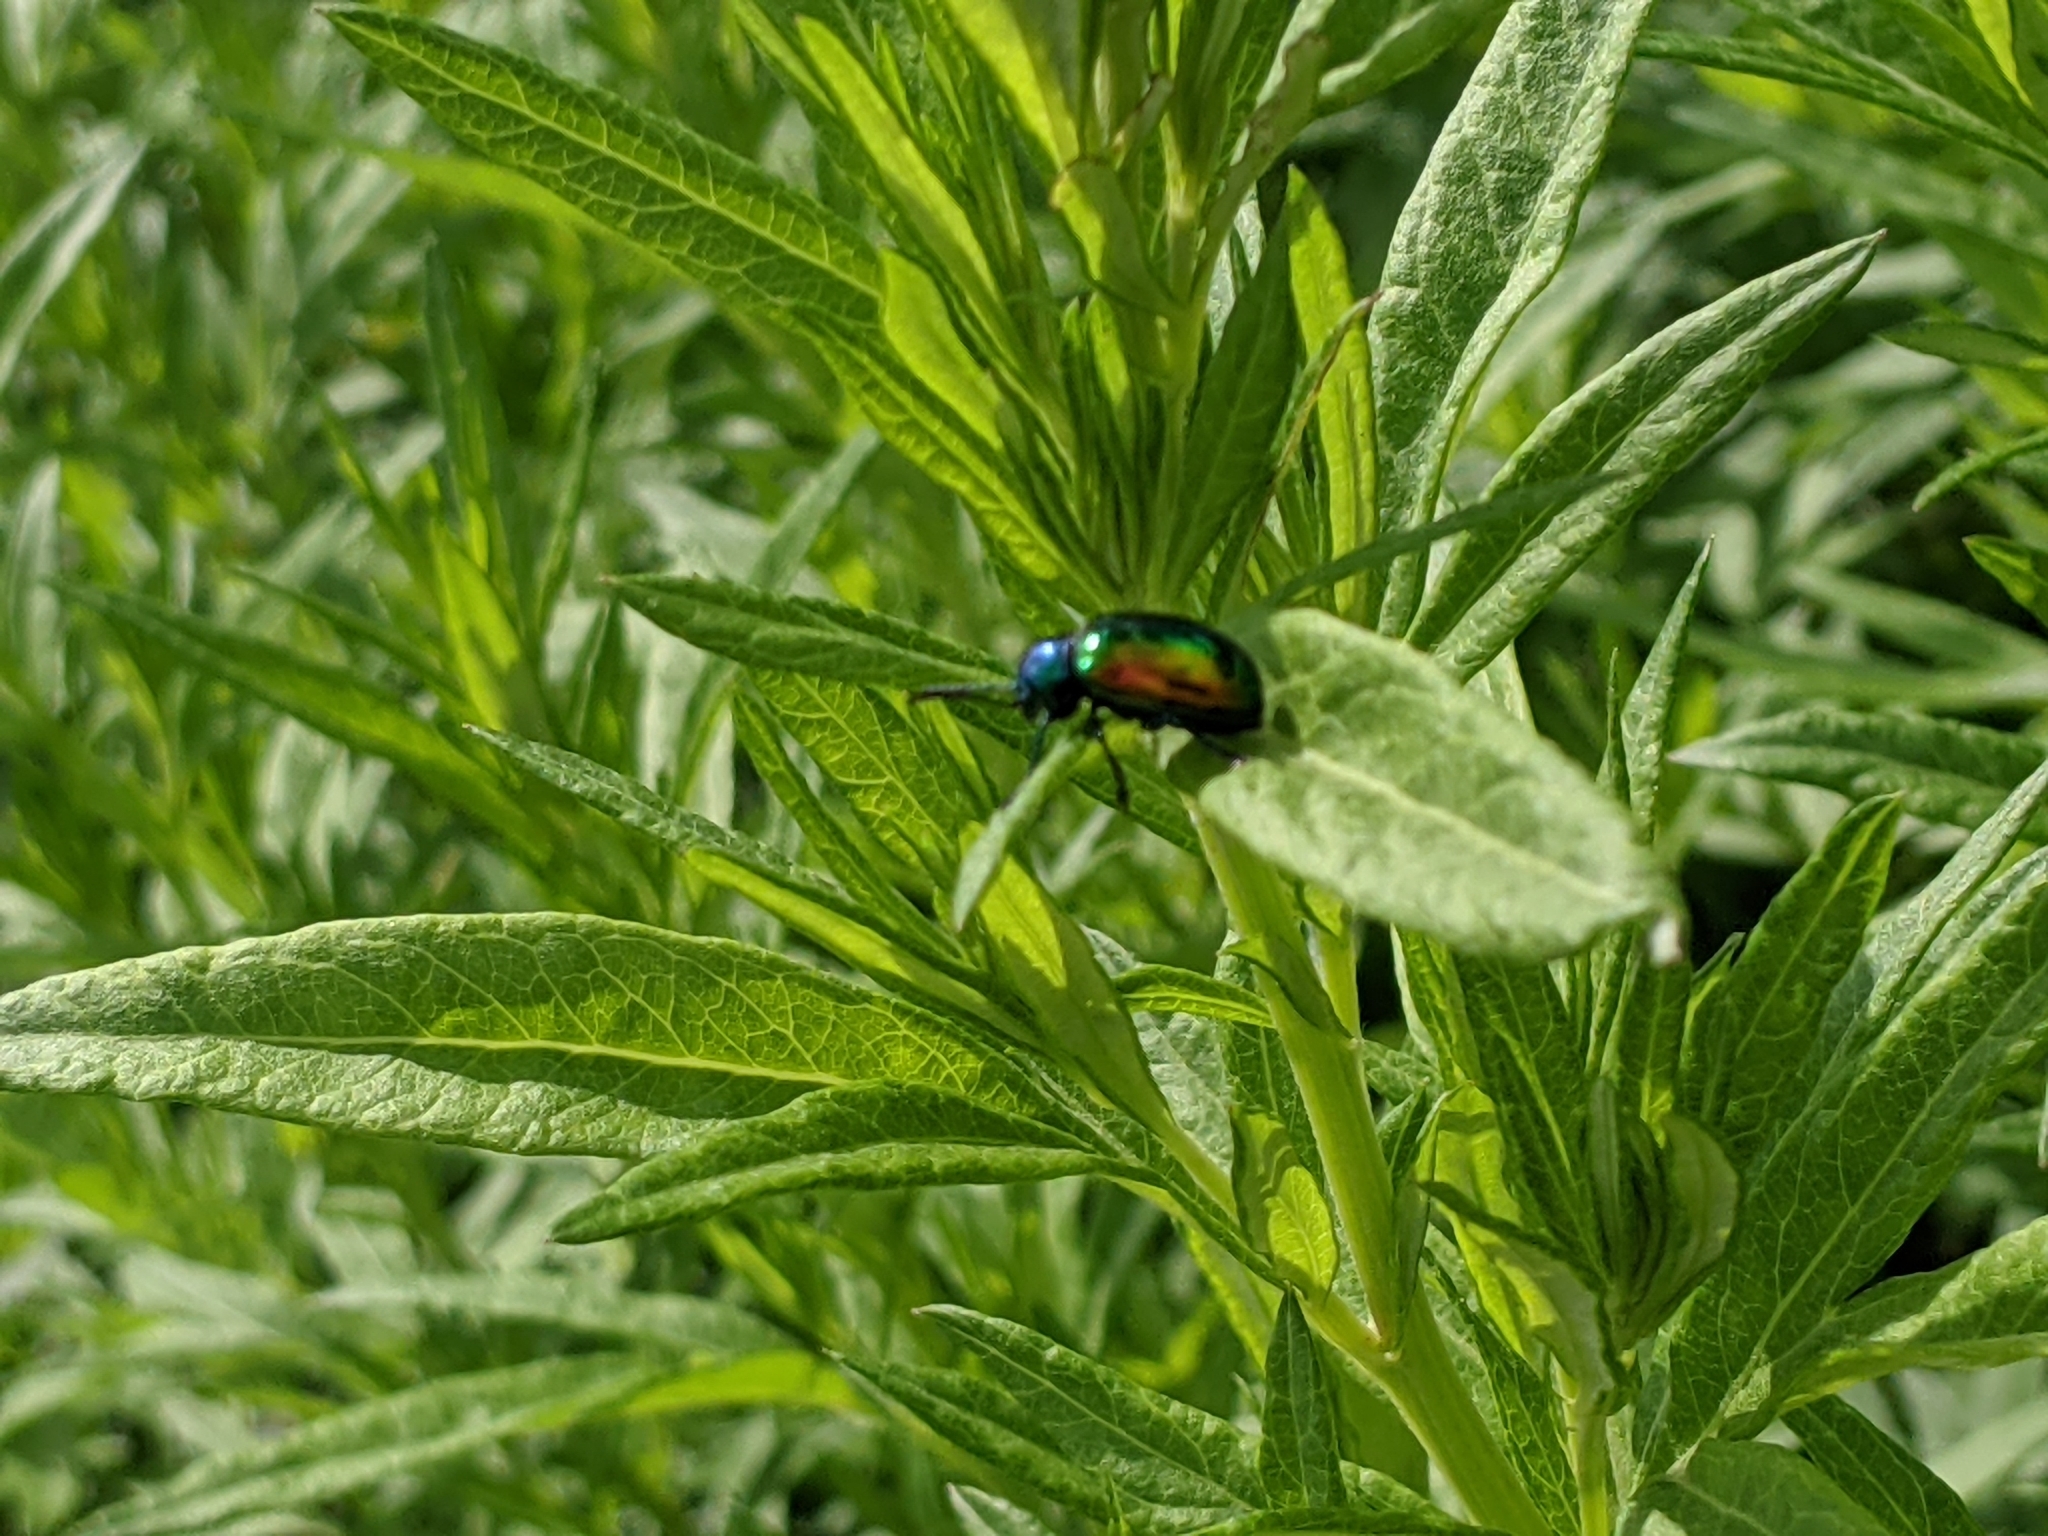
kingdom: Animalia
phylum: Arthropoda
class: Insecta
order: Coleoptera
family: Chrysomelidae
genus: Chrysochus
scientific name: Chrysochus auratus
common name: Dogbane leaf beetle
